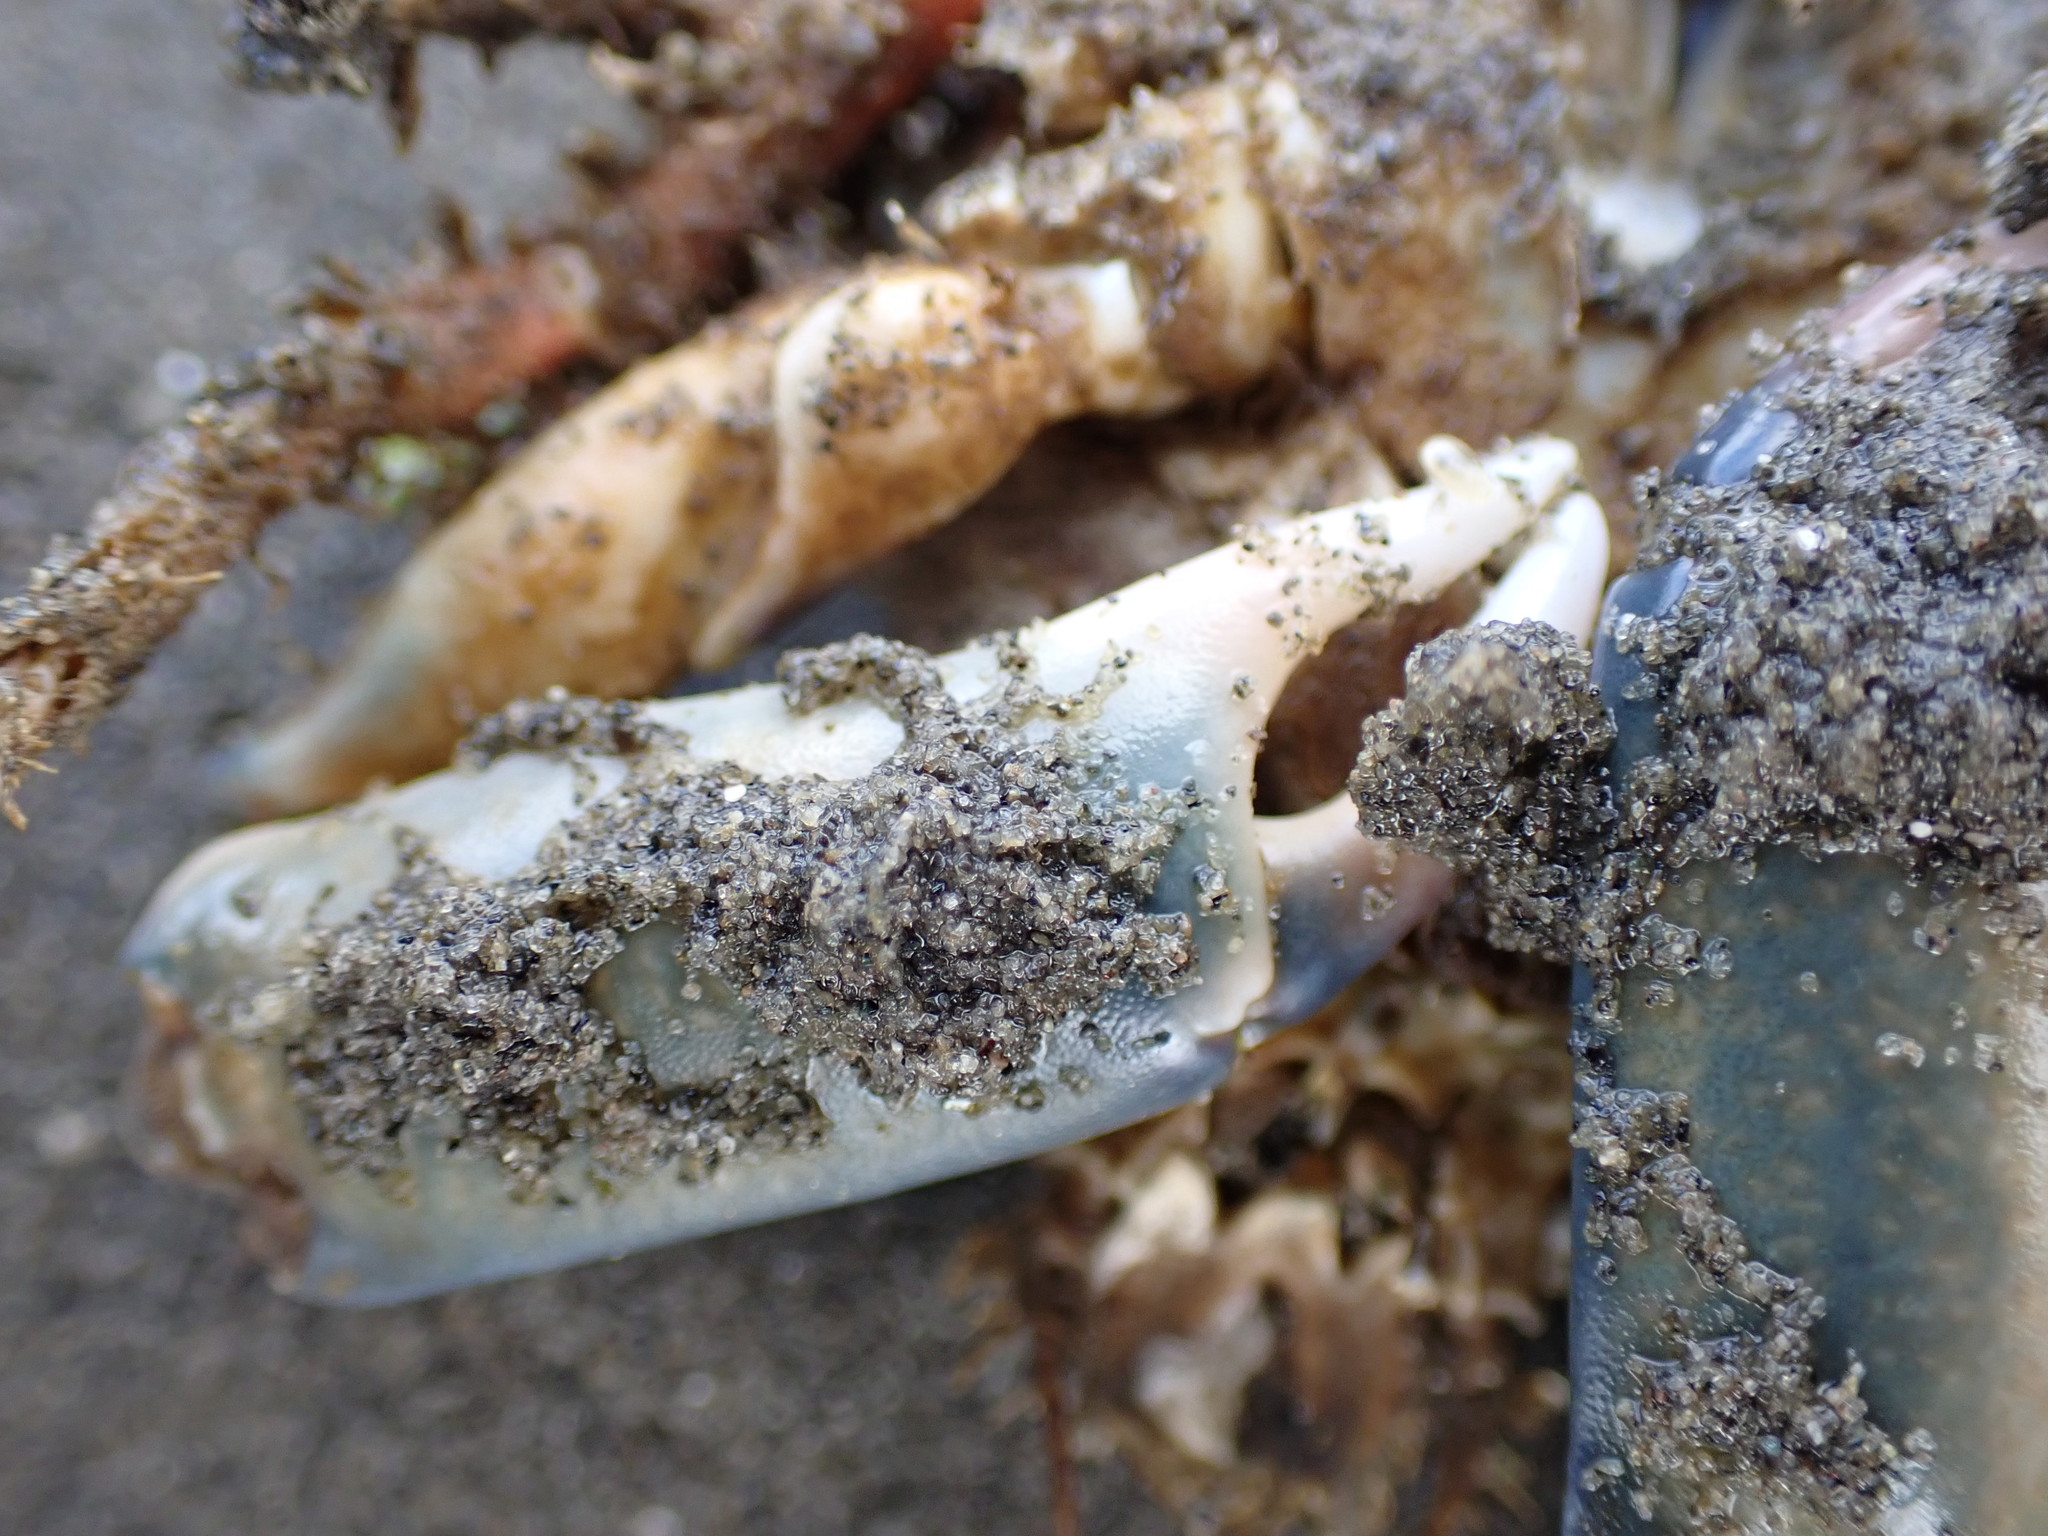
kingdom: Animalia
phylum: Arthropoda
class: Malacostraca
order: Decapoda
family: Majidae
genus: Notomithrax
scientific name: Notomithrax minor
